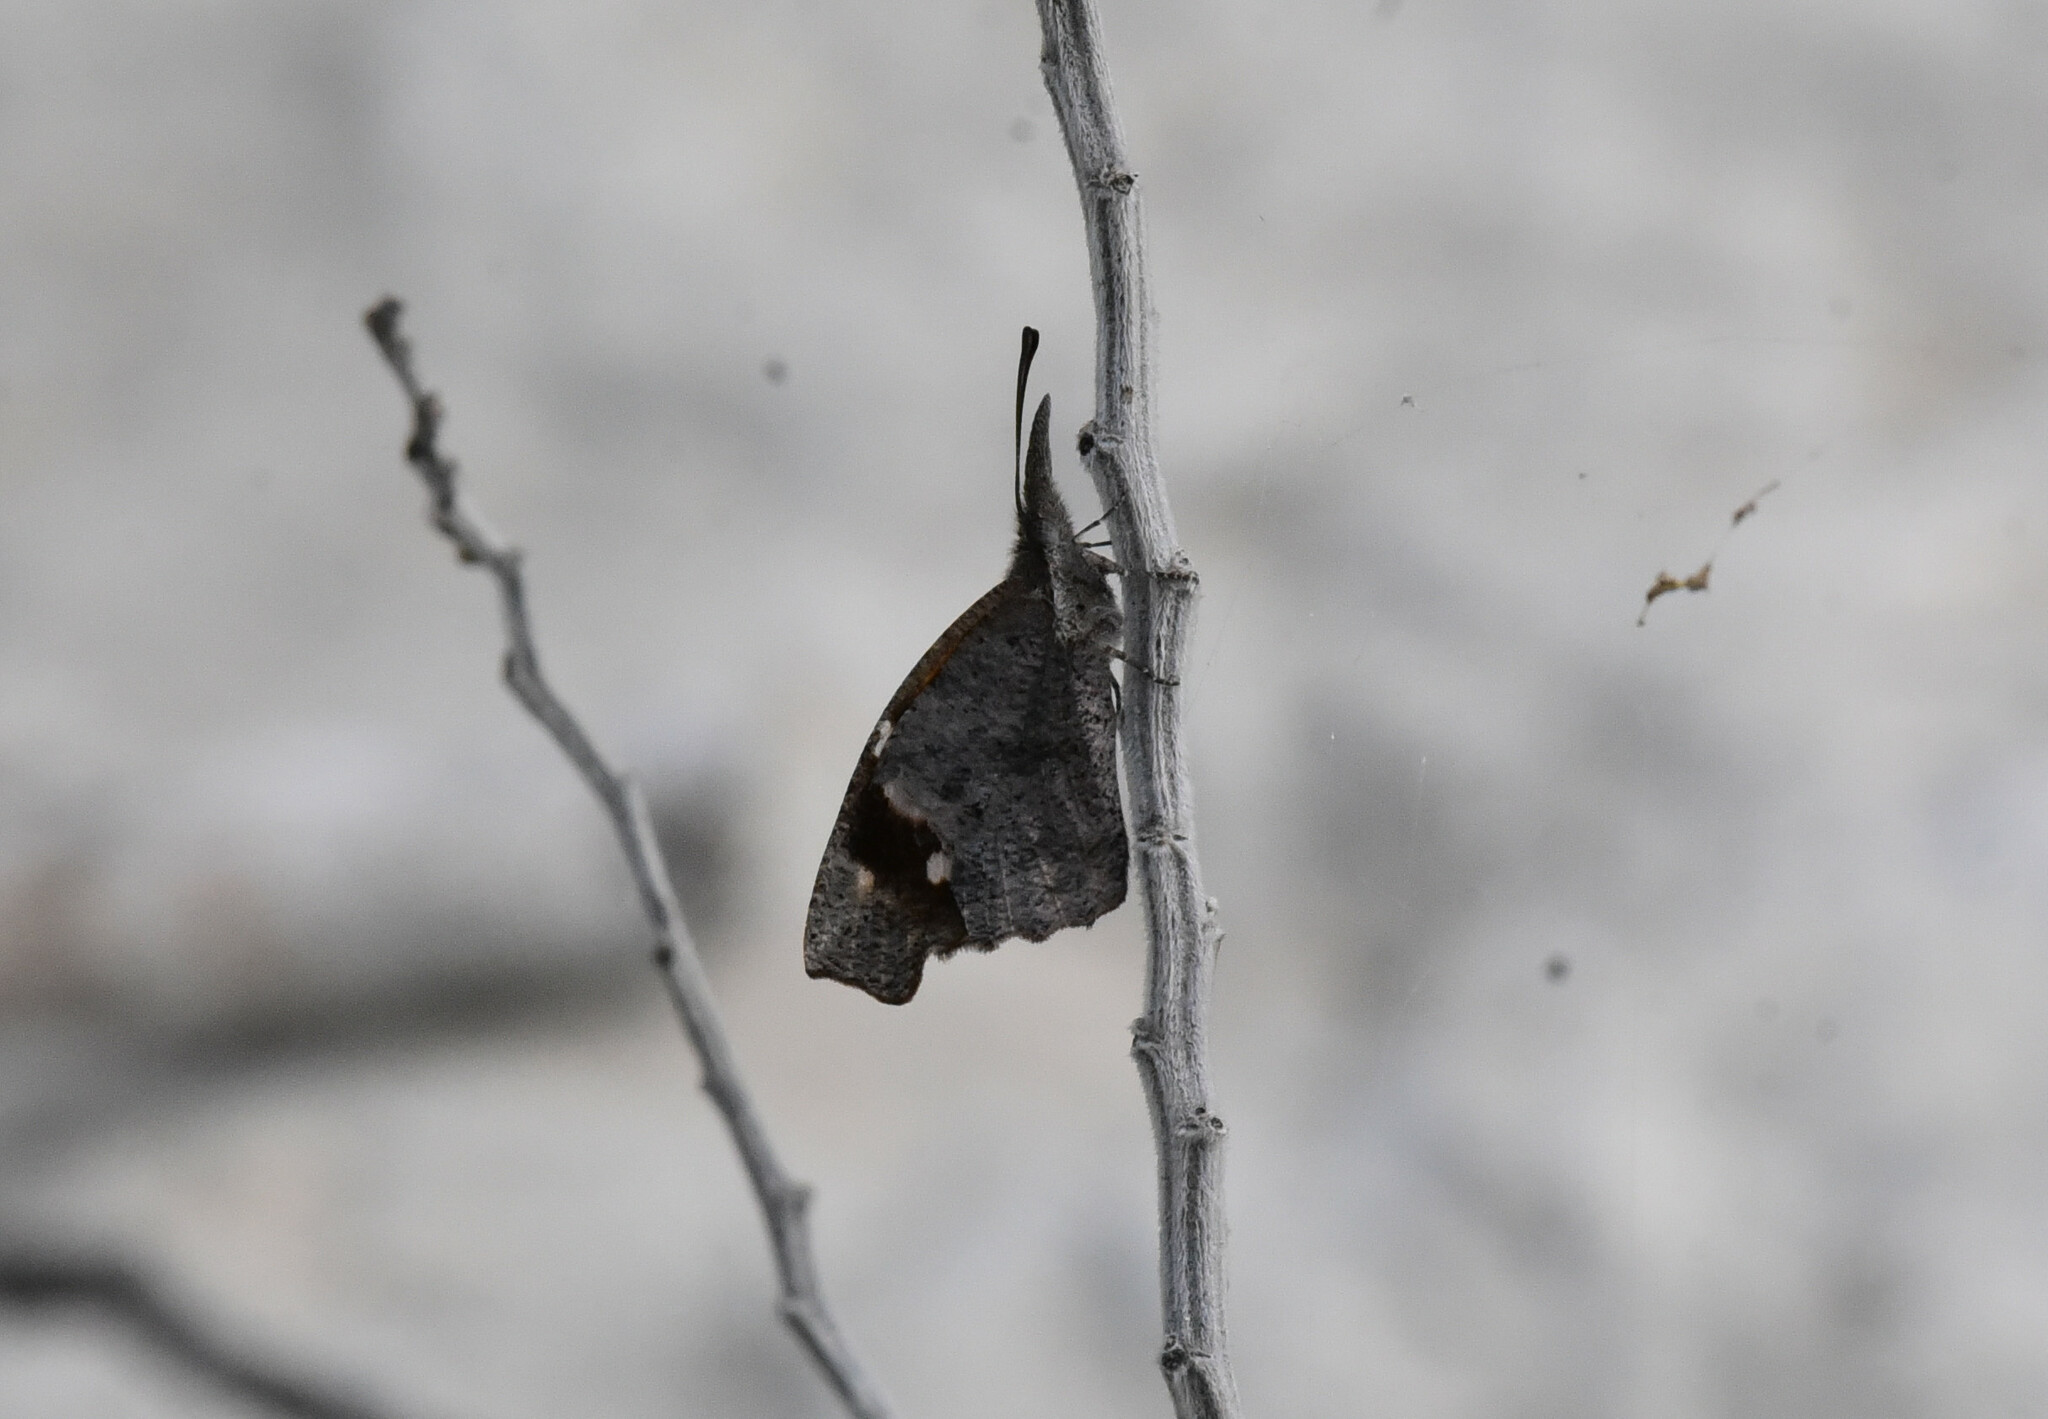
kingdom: Animalia
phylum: Arthropoda
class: Insecta
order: Lepidoptera
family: Nymphalidae
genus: Libytheana
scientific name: Libytheana carinenta
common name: American snout
